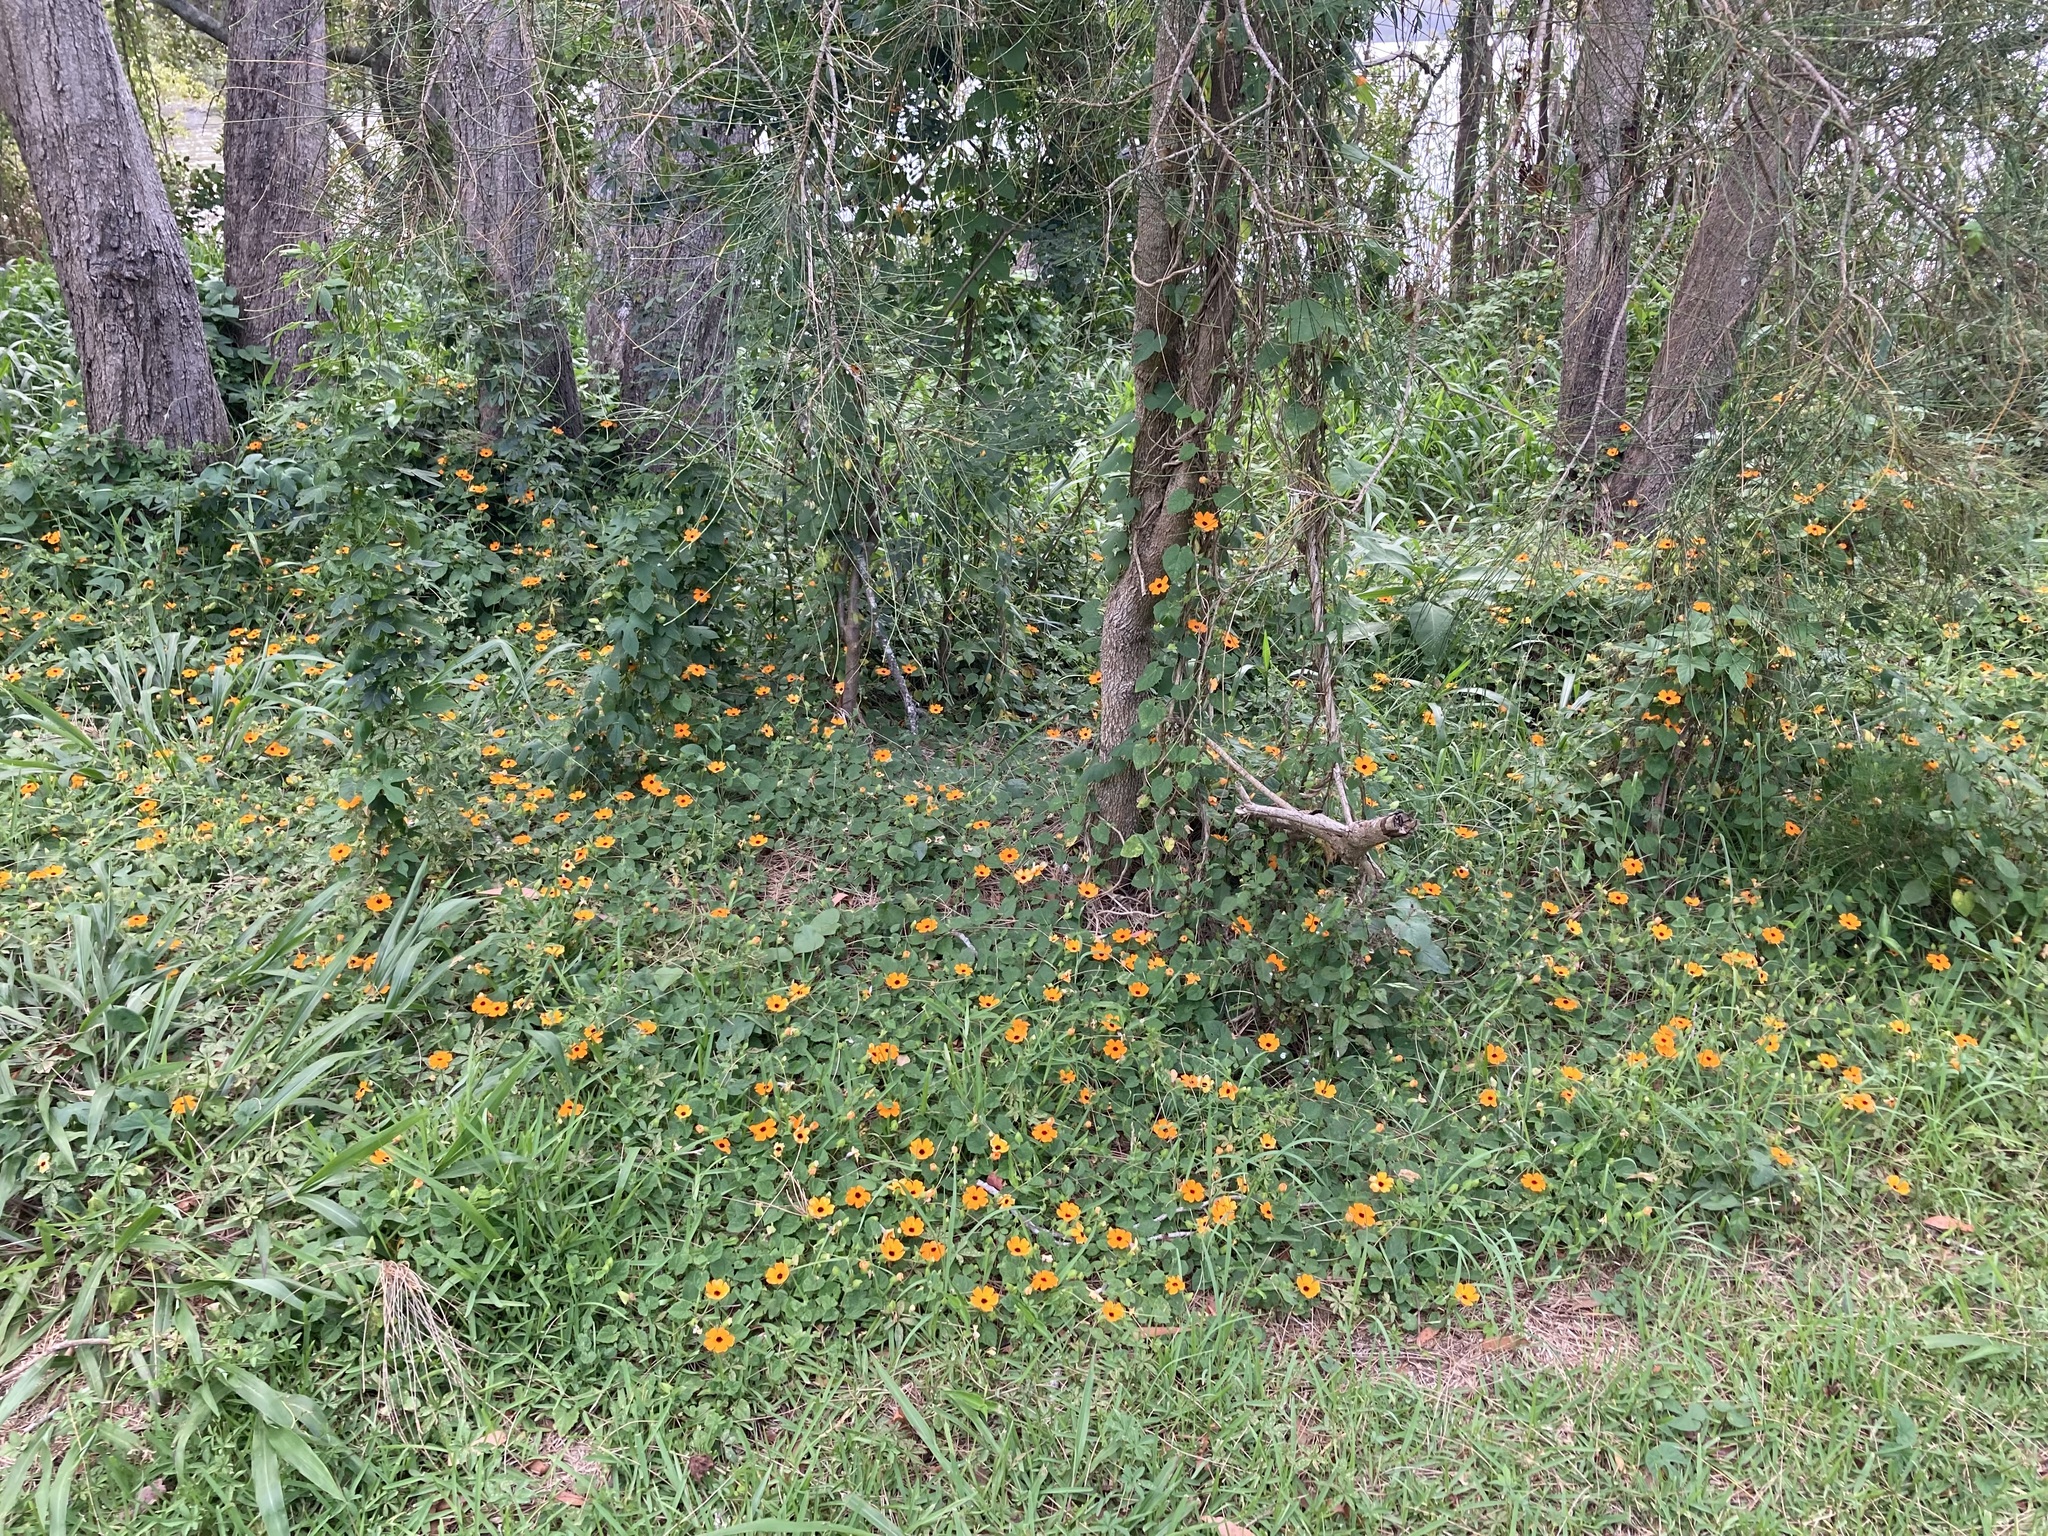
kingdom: Plantae
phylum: Tracheophyta
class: Magnoliopsida
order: Lamiales
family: Acanthaceae
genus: Thunbergia
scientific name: Thunbergia alata
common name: Blackeyed susan vine
